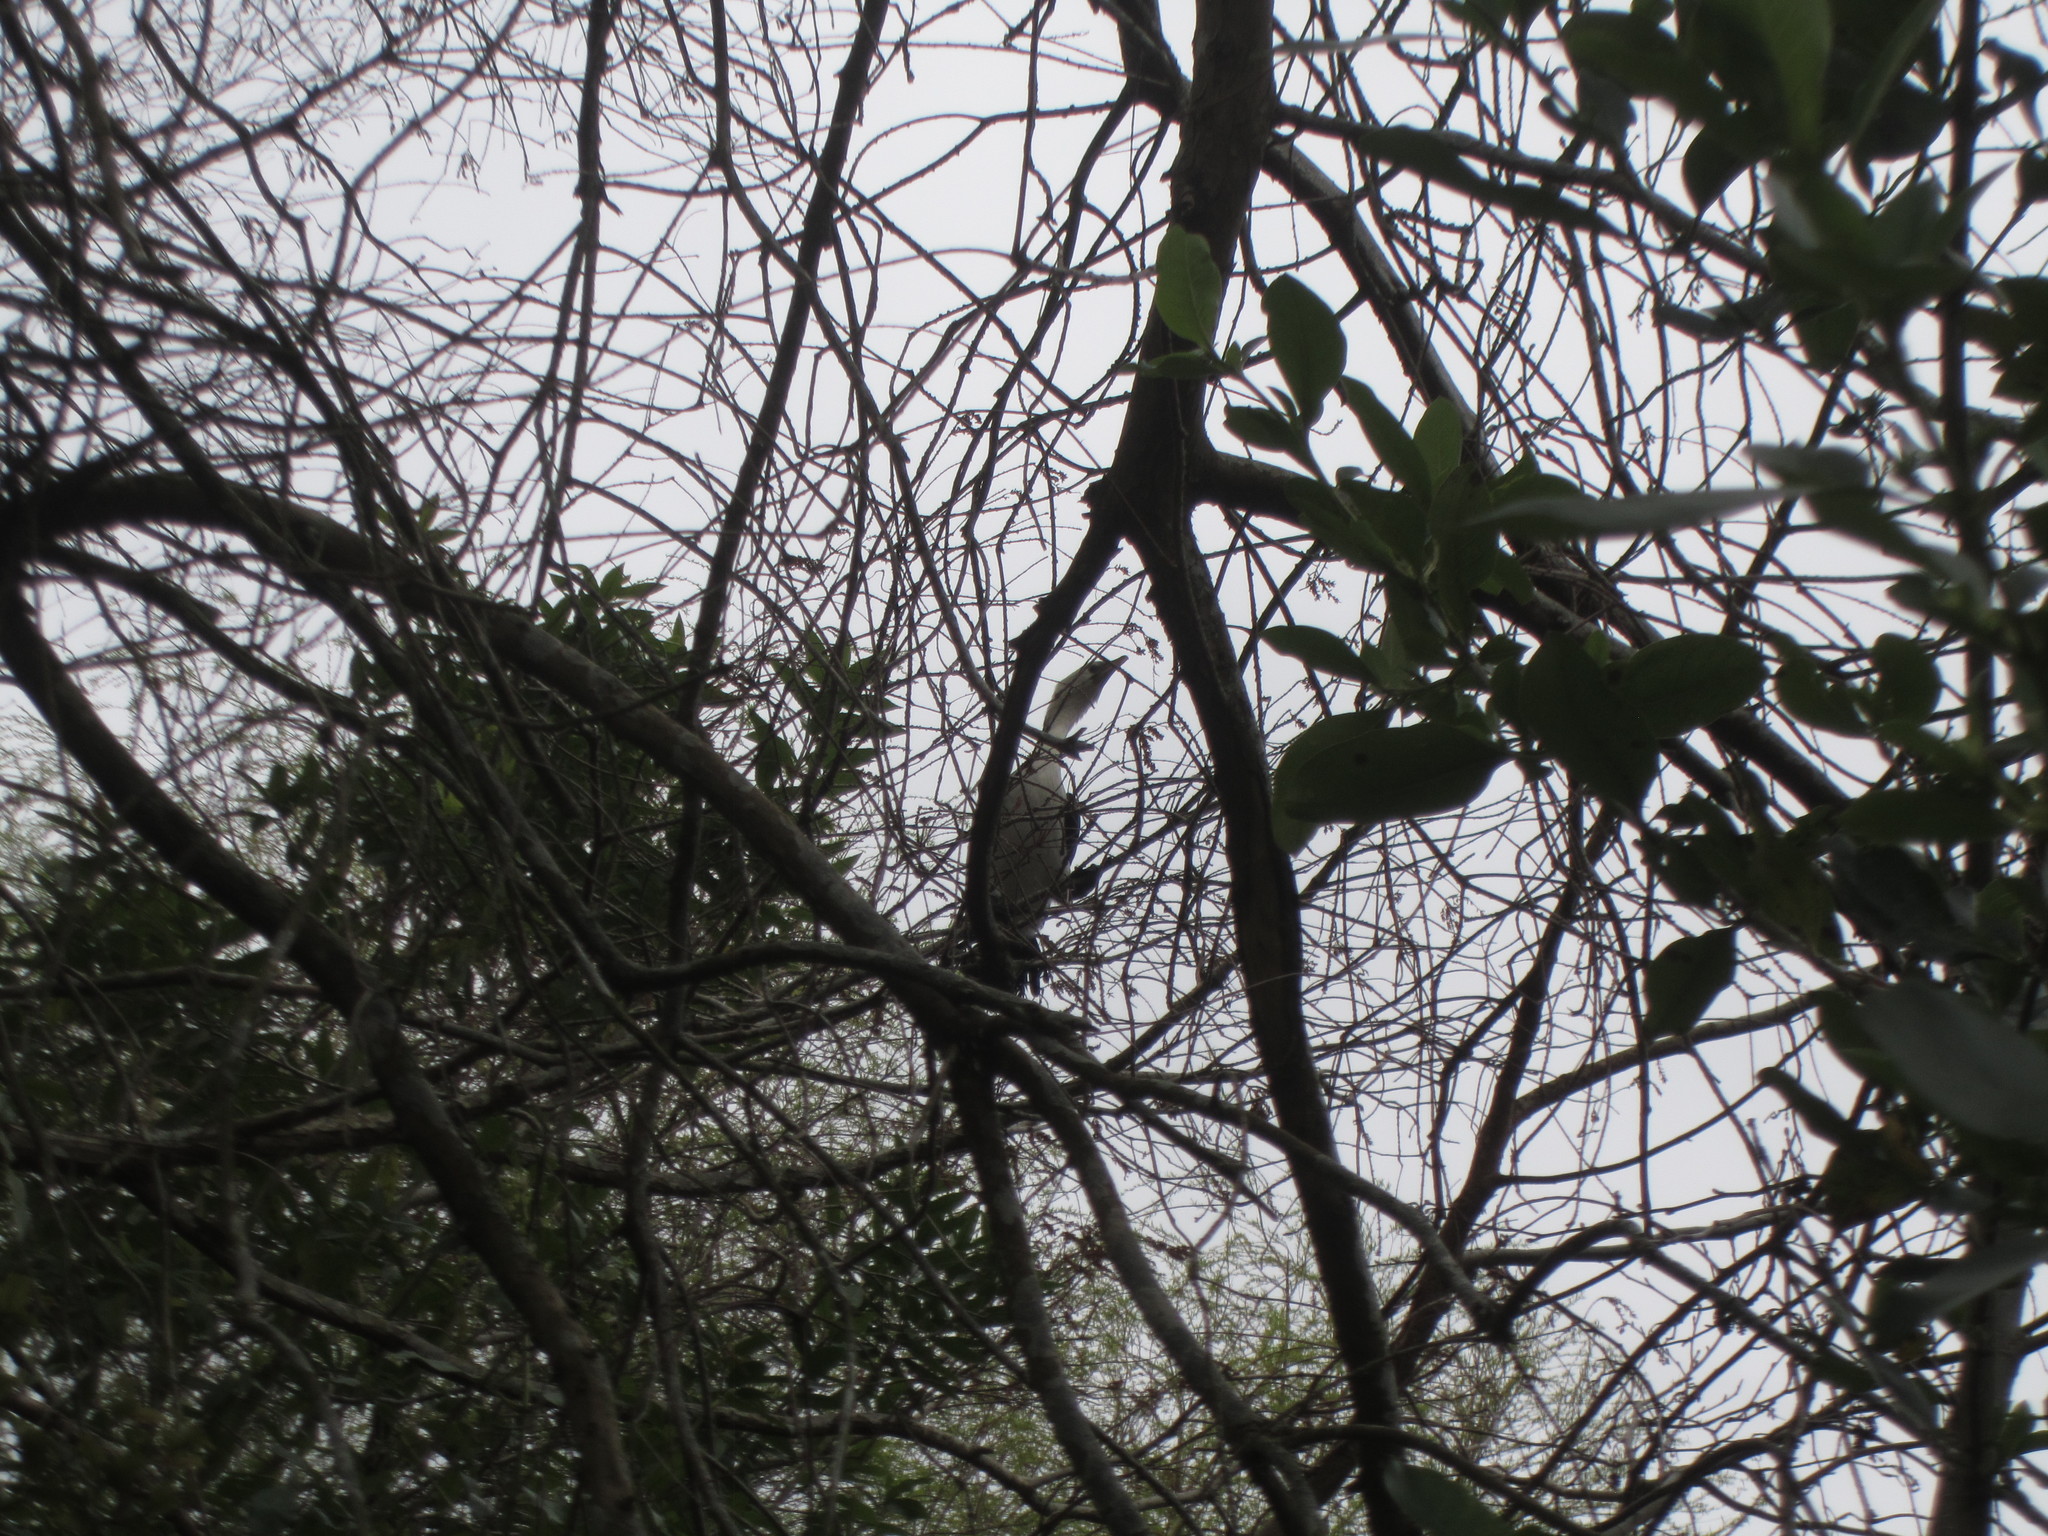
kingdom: Animalia
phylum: Chordata
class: Aves
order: Suliformes
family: Phalacrocoracidae
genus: Microcarbo
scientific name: Microcarbo melanoleucos
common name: Little pied cormorant
